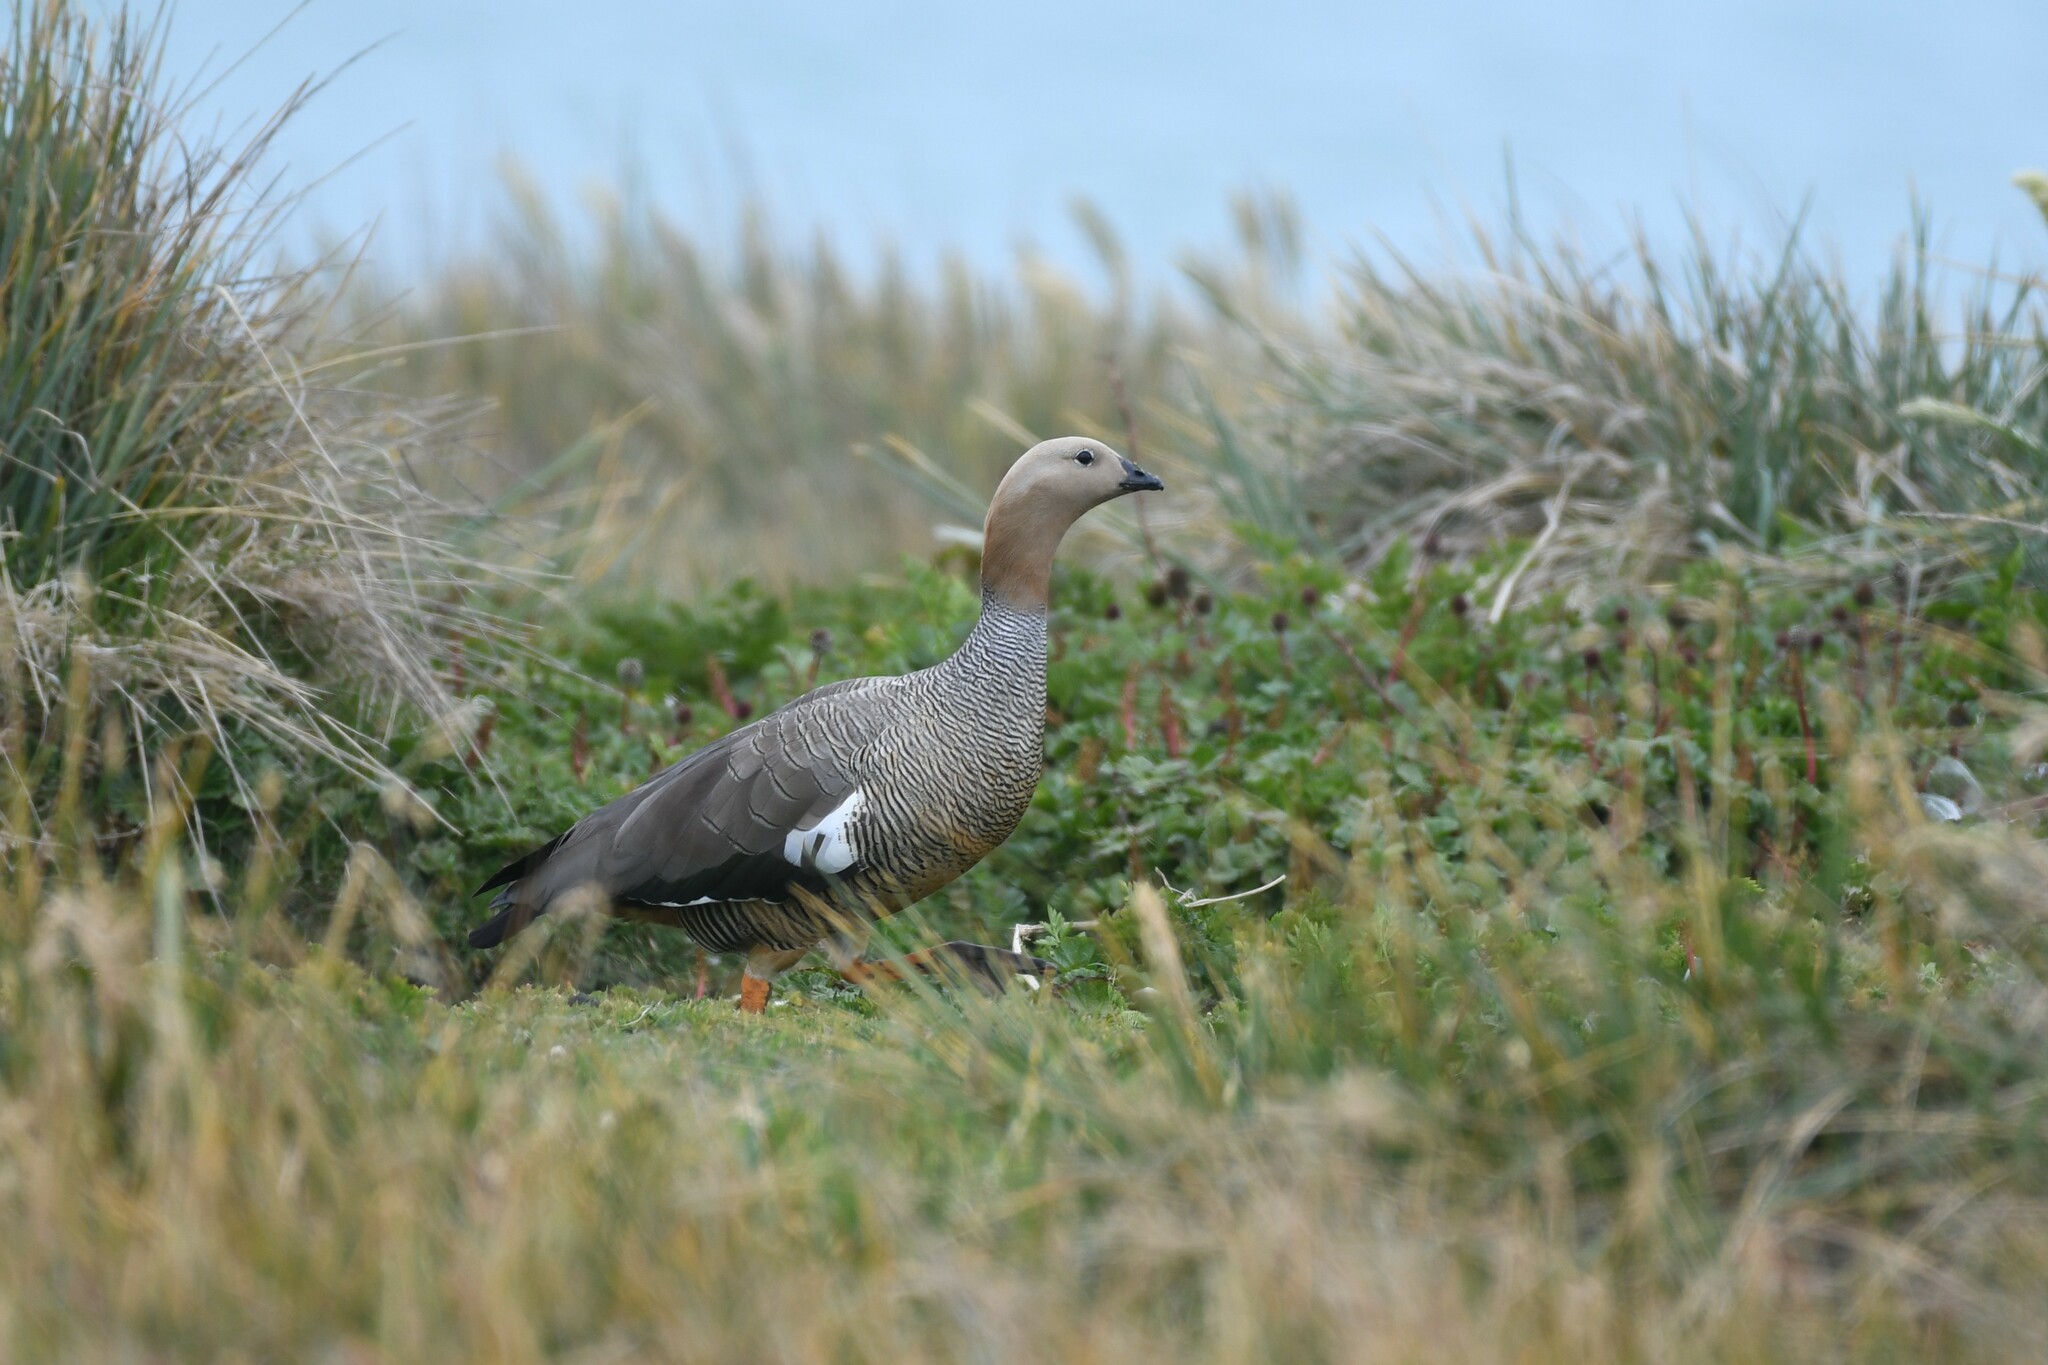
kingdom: Animalia
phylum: Chordata
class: Aves
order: Anseriformes
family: Anatidae
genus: Chloephaga
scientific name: Chloephaga rubidiceps
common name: Ruddy-headed goose
